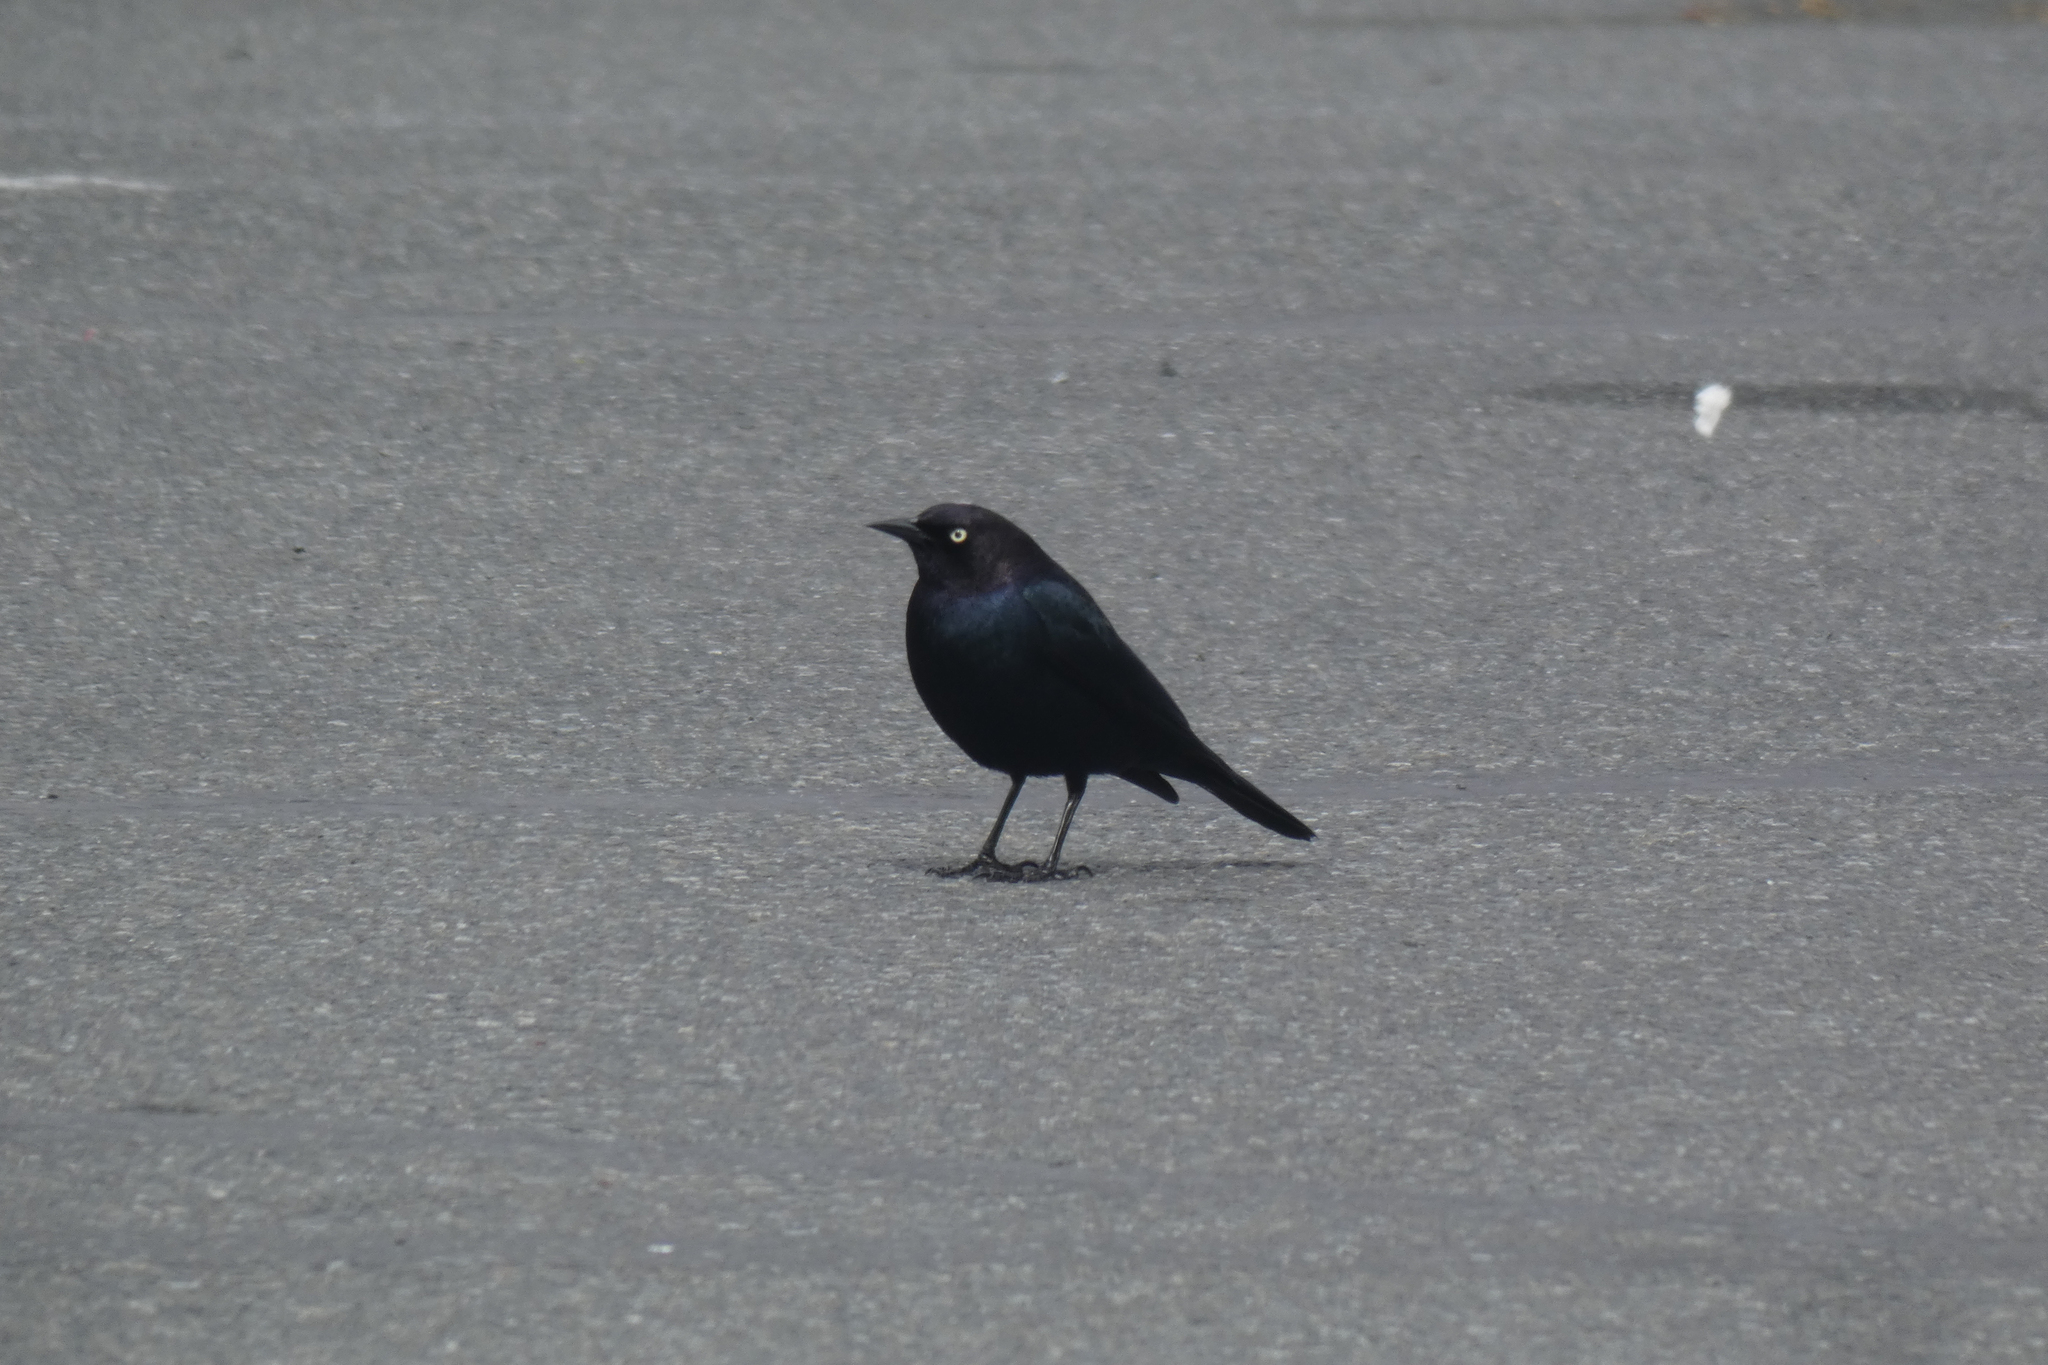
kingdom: Animalia
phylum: Chordata
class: Aves
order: Passeriformes
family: Icteridae
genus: Euphagus
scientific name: Euphagus cyanocephalus
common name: Brewer's blackbird
